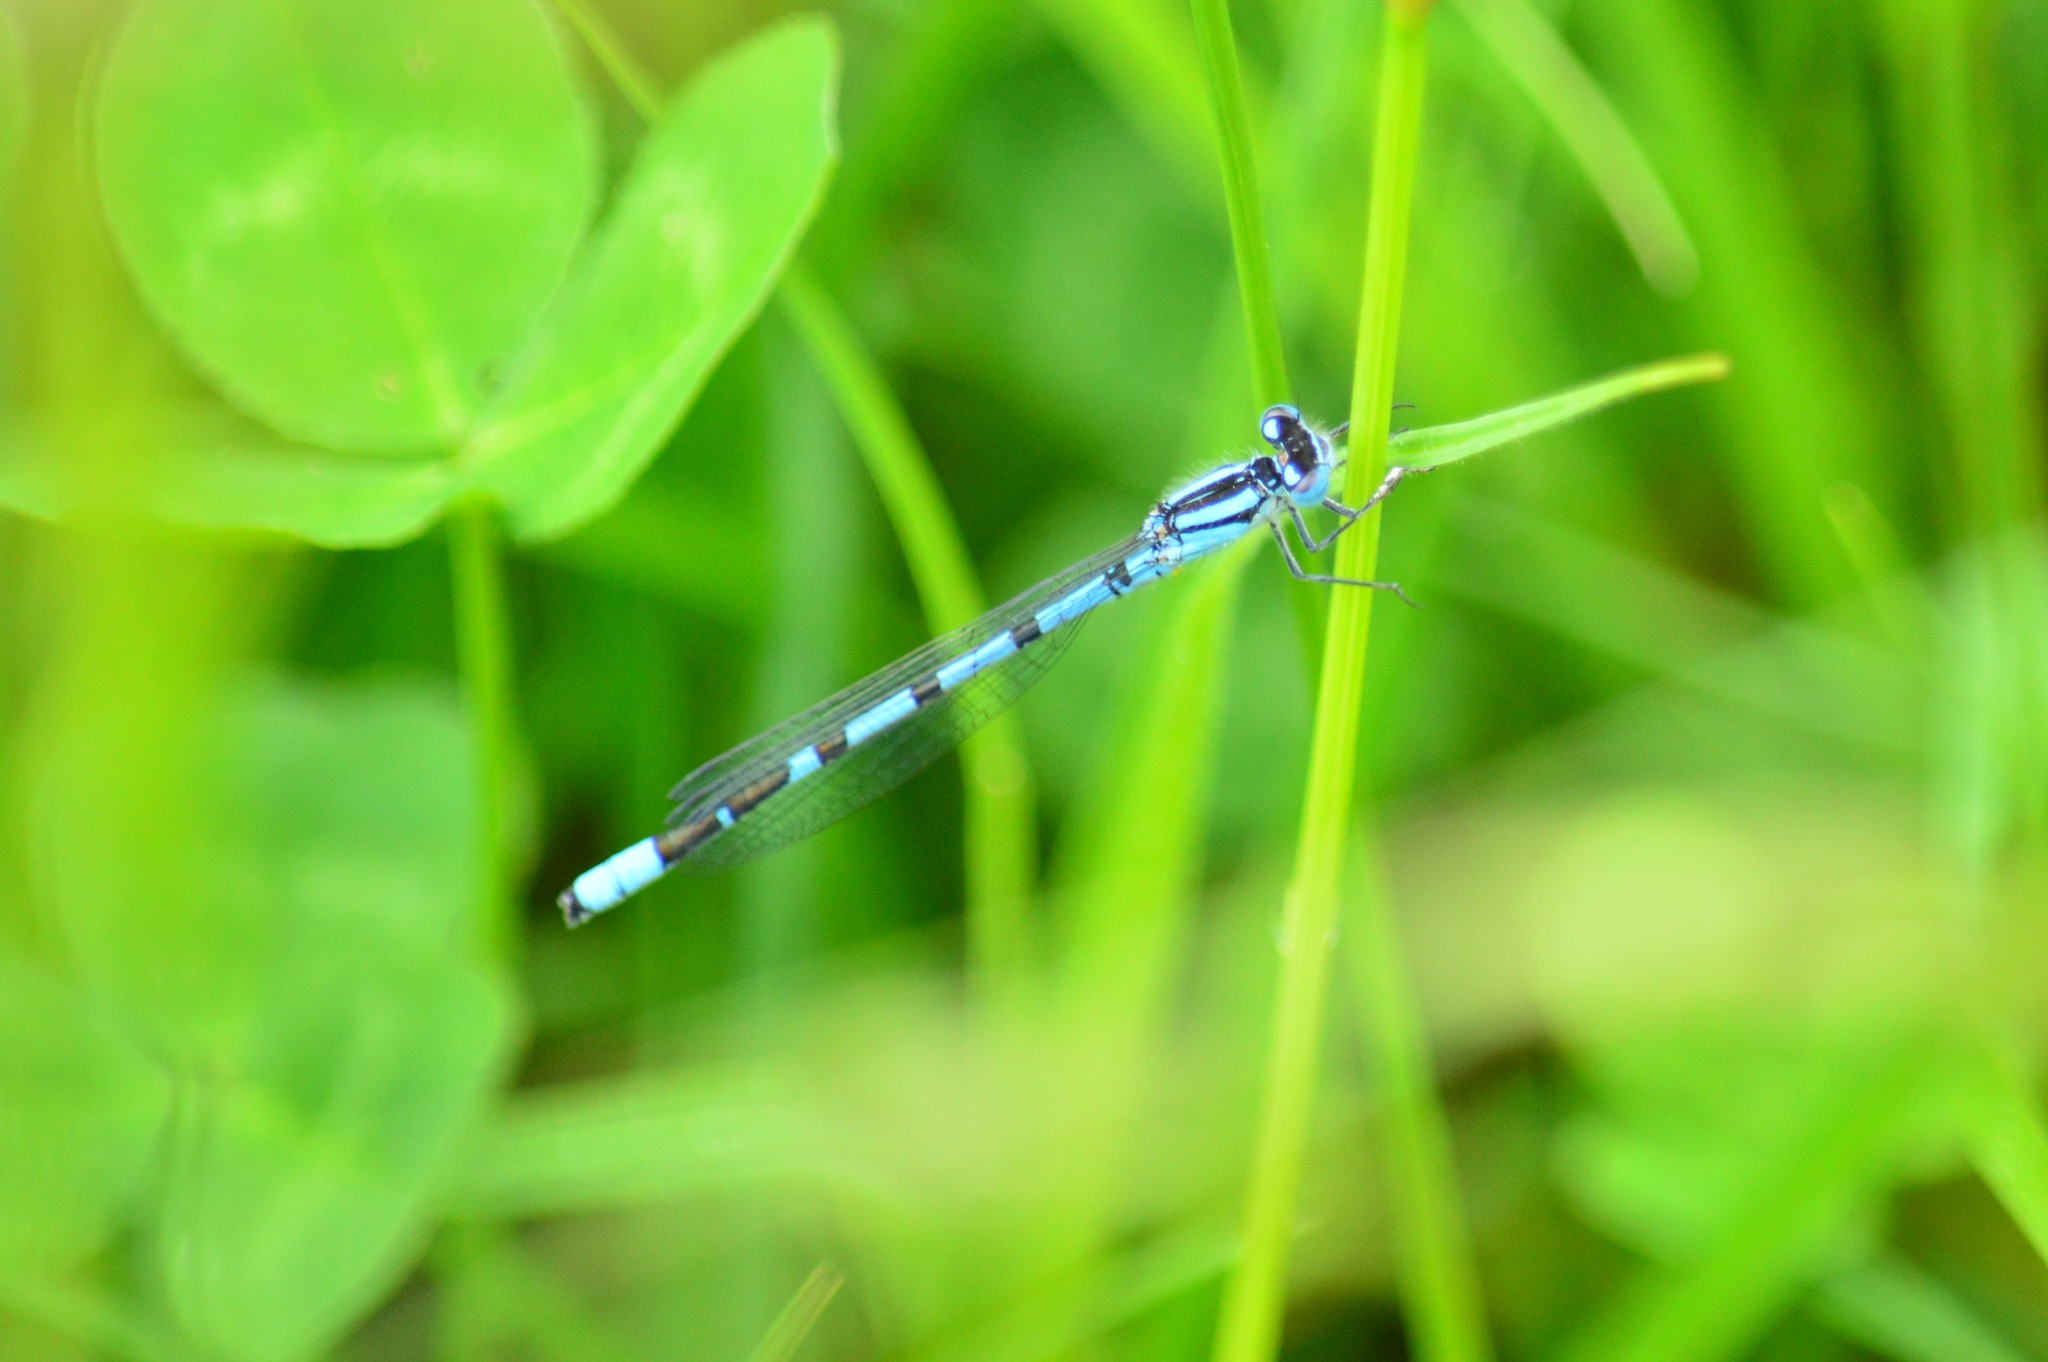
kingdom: Animalia
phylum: Arthropoda
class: Insecta
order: Odonata
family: Coenagrionidae
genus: Enallagma
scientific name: Enallagma cyathigerum
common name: Common blue damselfly
